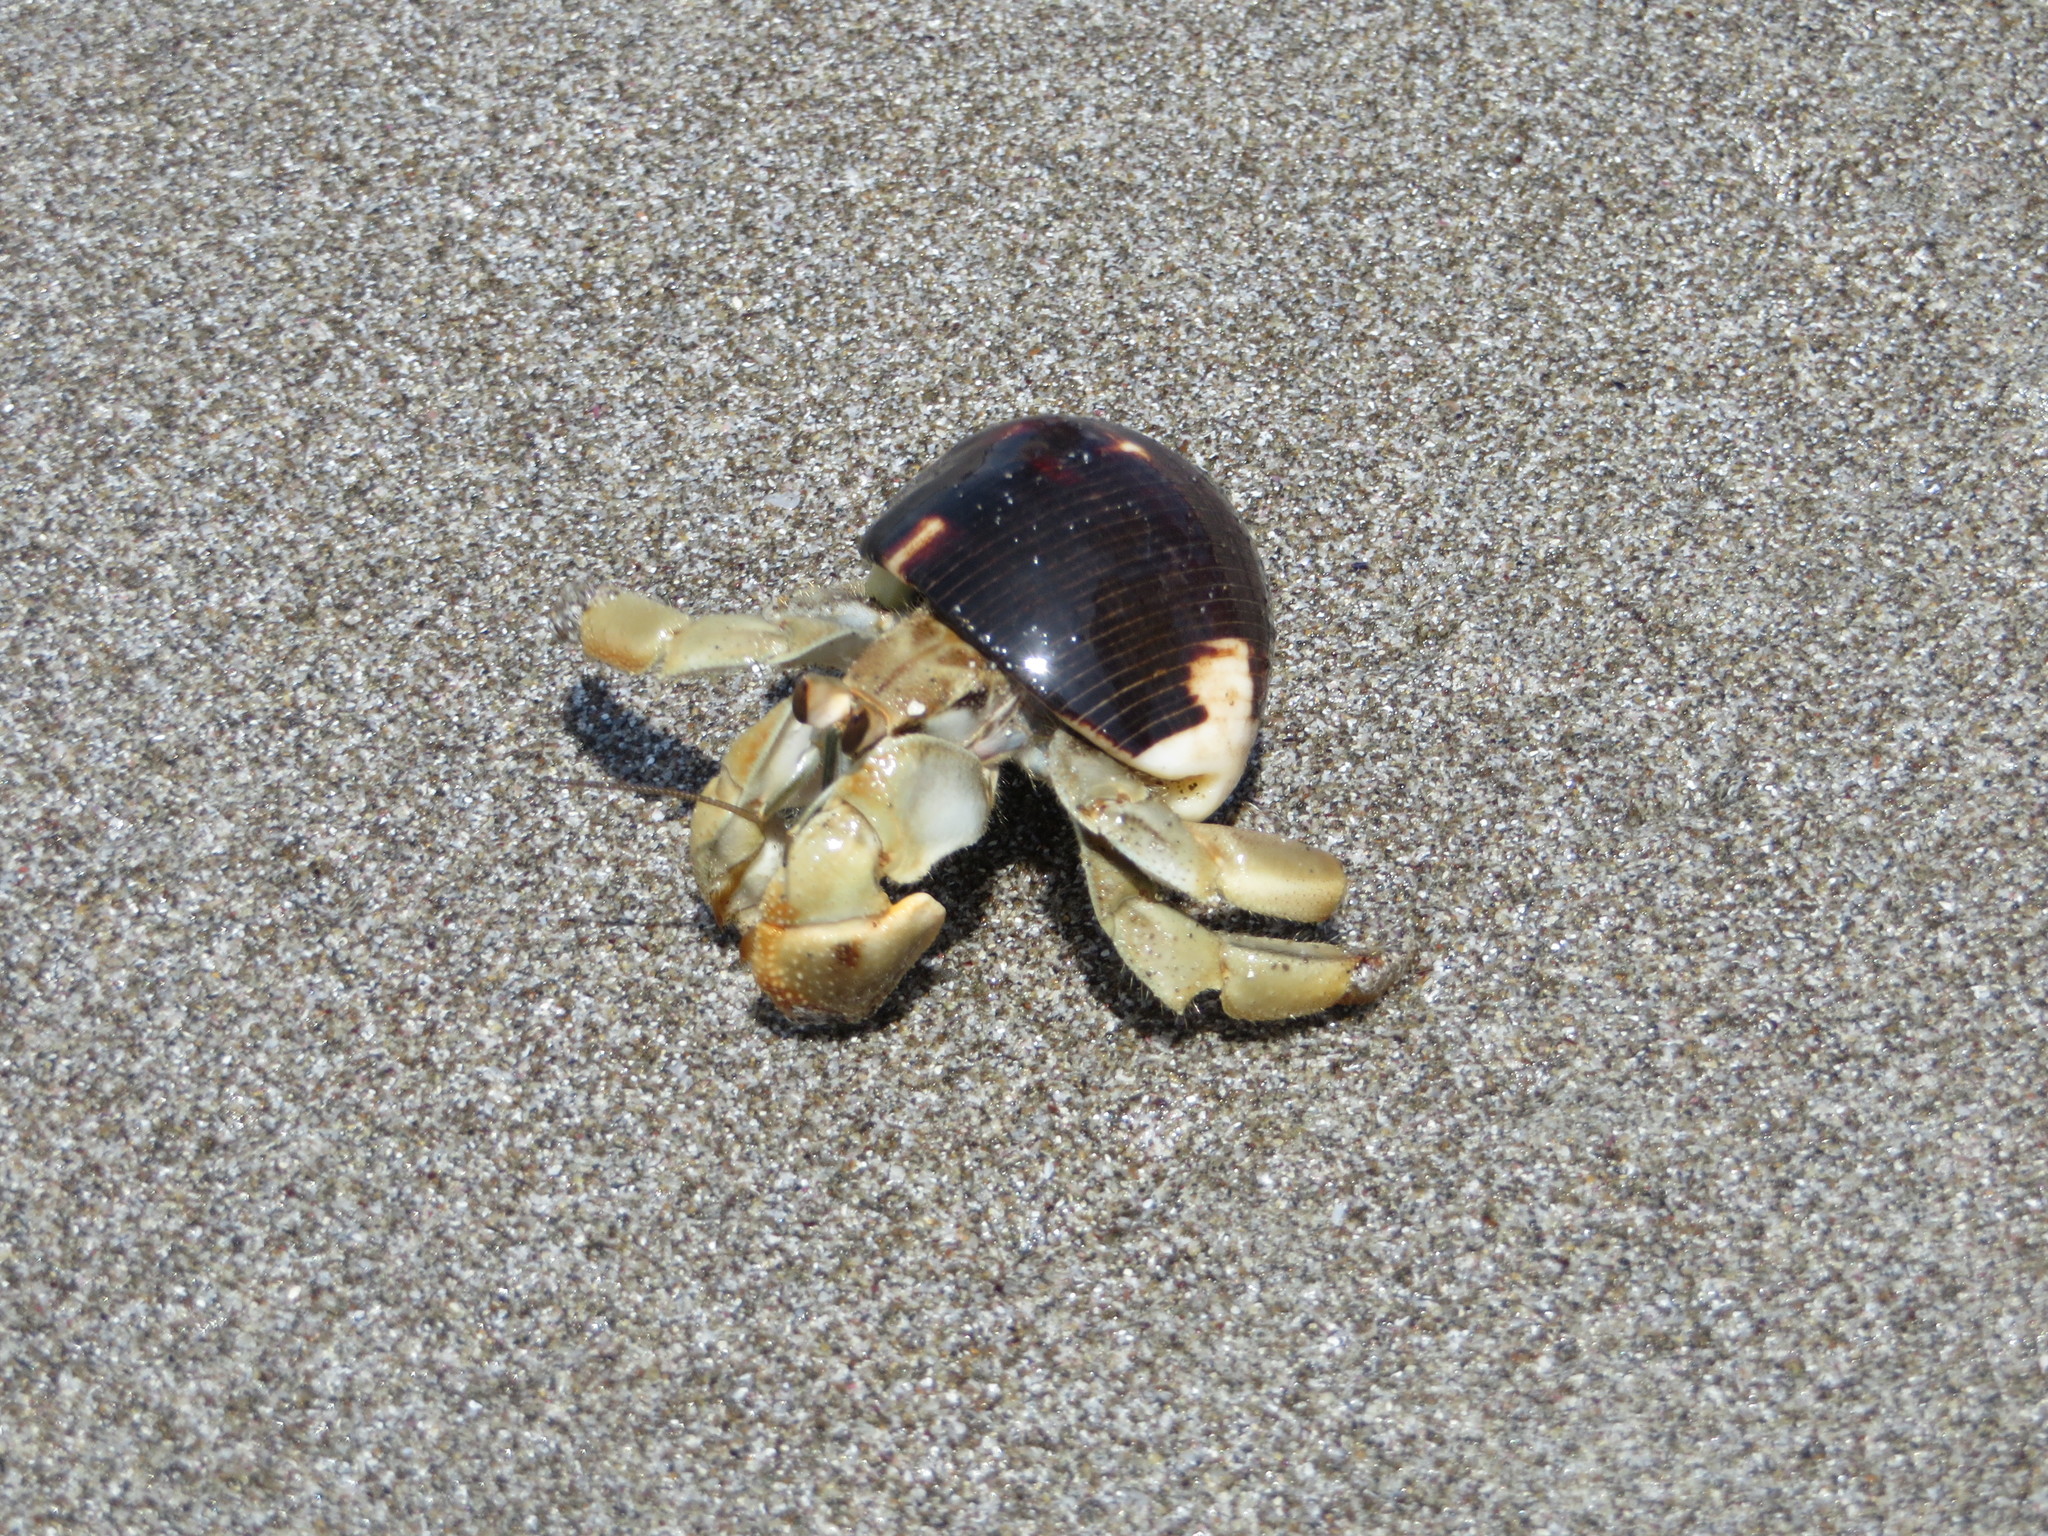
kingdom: Animalia
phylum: Arthropoda
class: Malacostraca
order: Decapoda
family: Coenobitidae
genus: Coenobita
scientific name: Coenobita compressus
